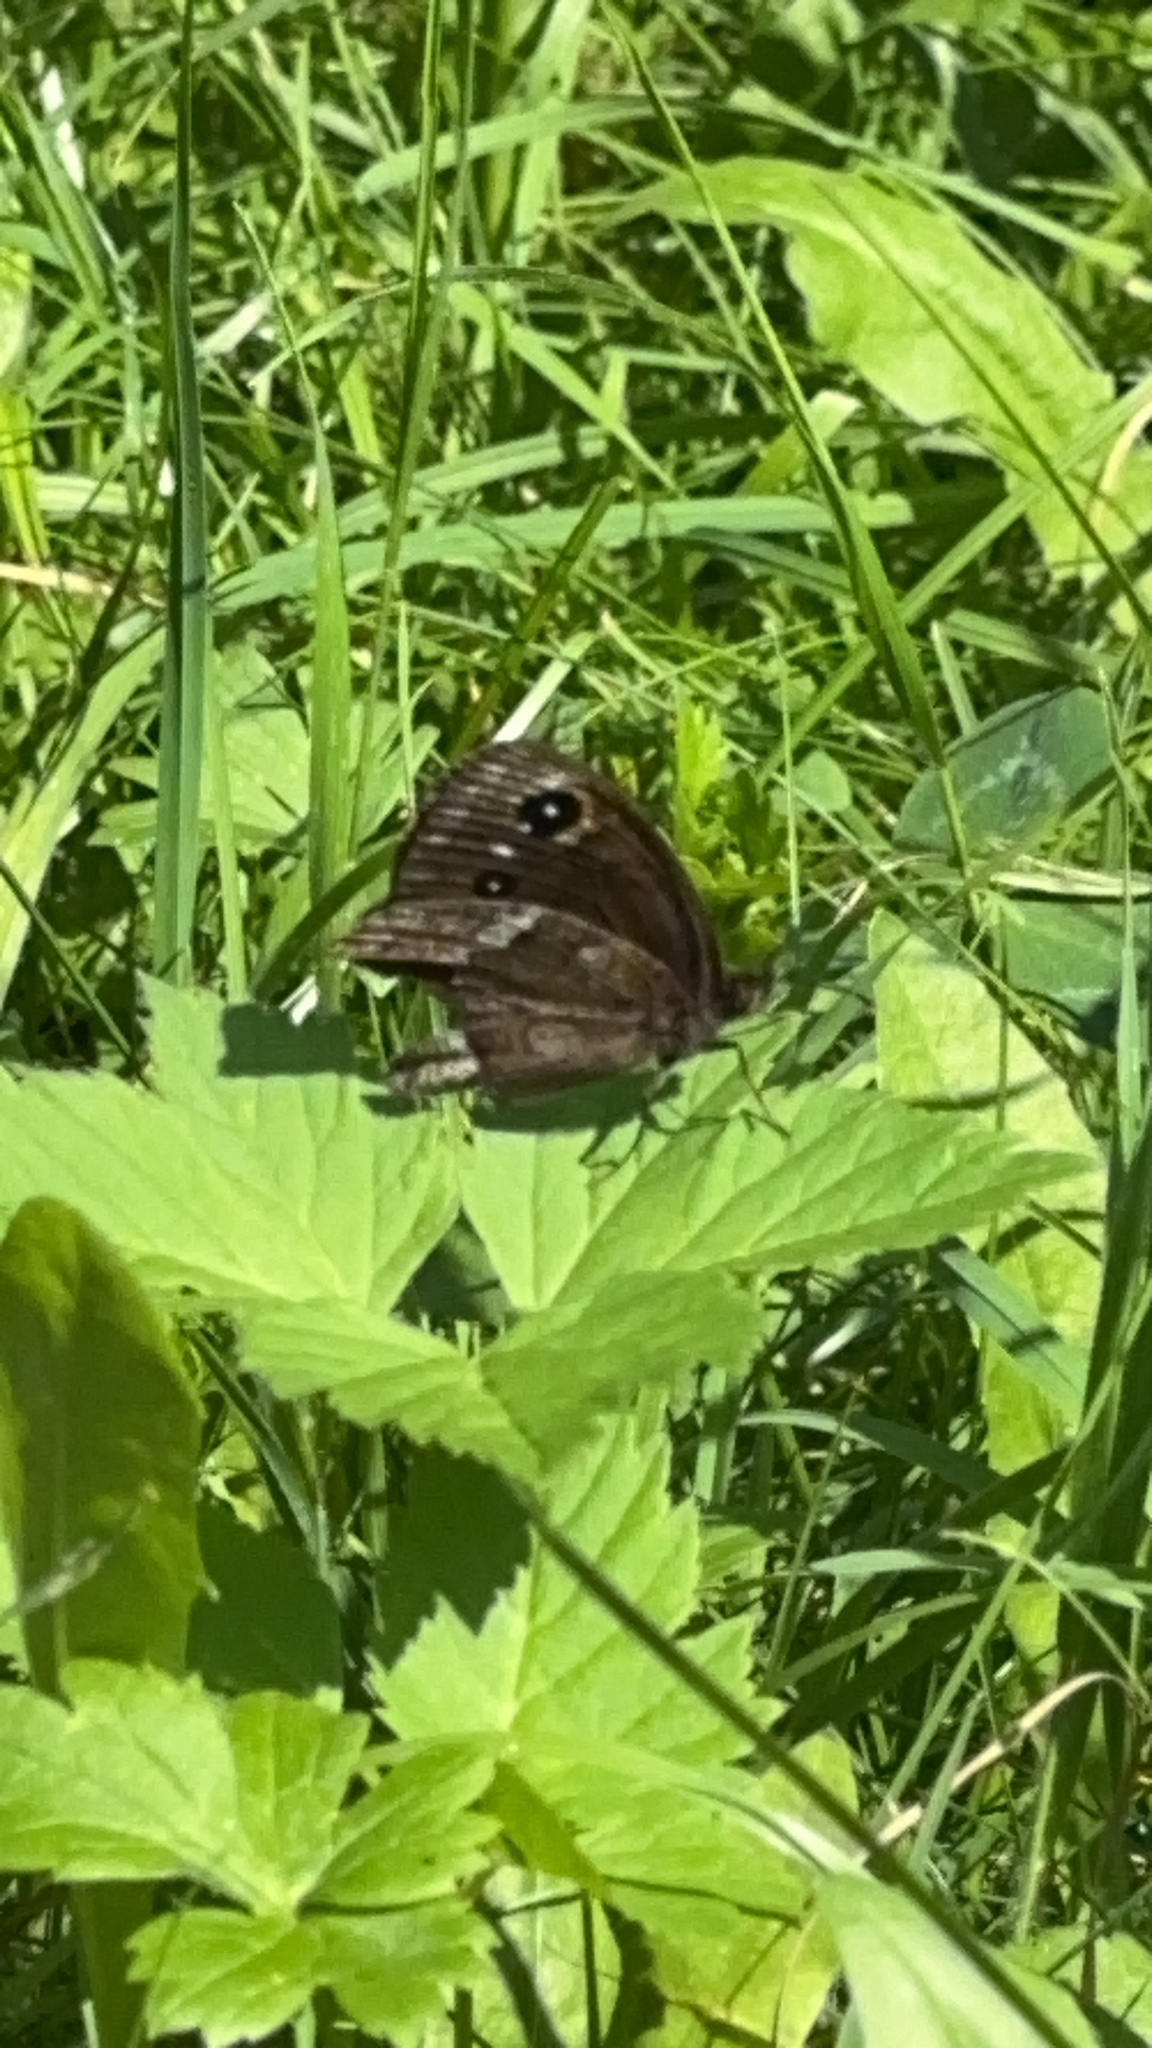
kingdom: Animalia
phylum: Arthropoda
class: Insecta
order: Lepidoptera
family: Nymphalidae
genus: Minois
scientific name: Minois dryas
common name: Dryad
